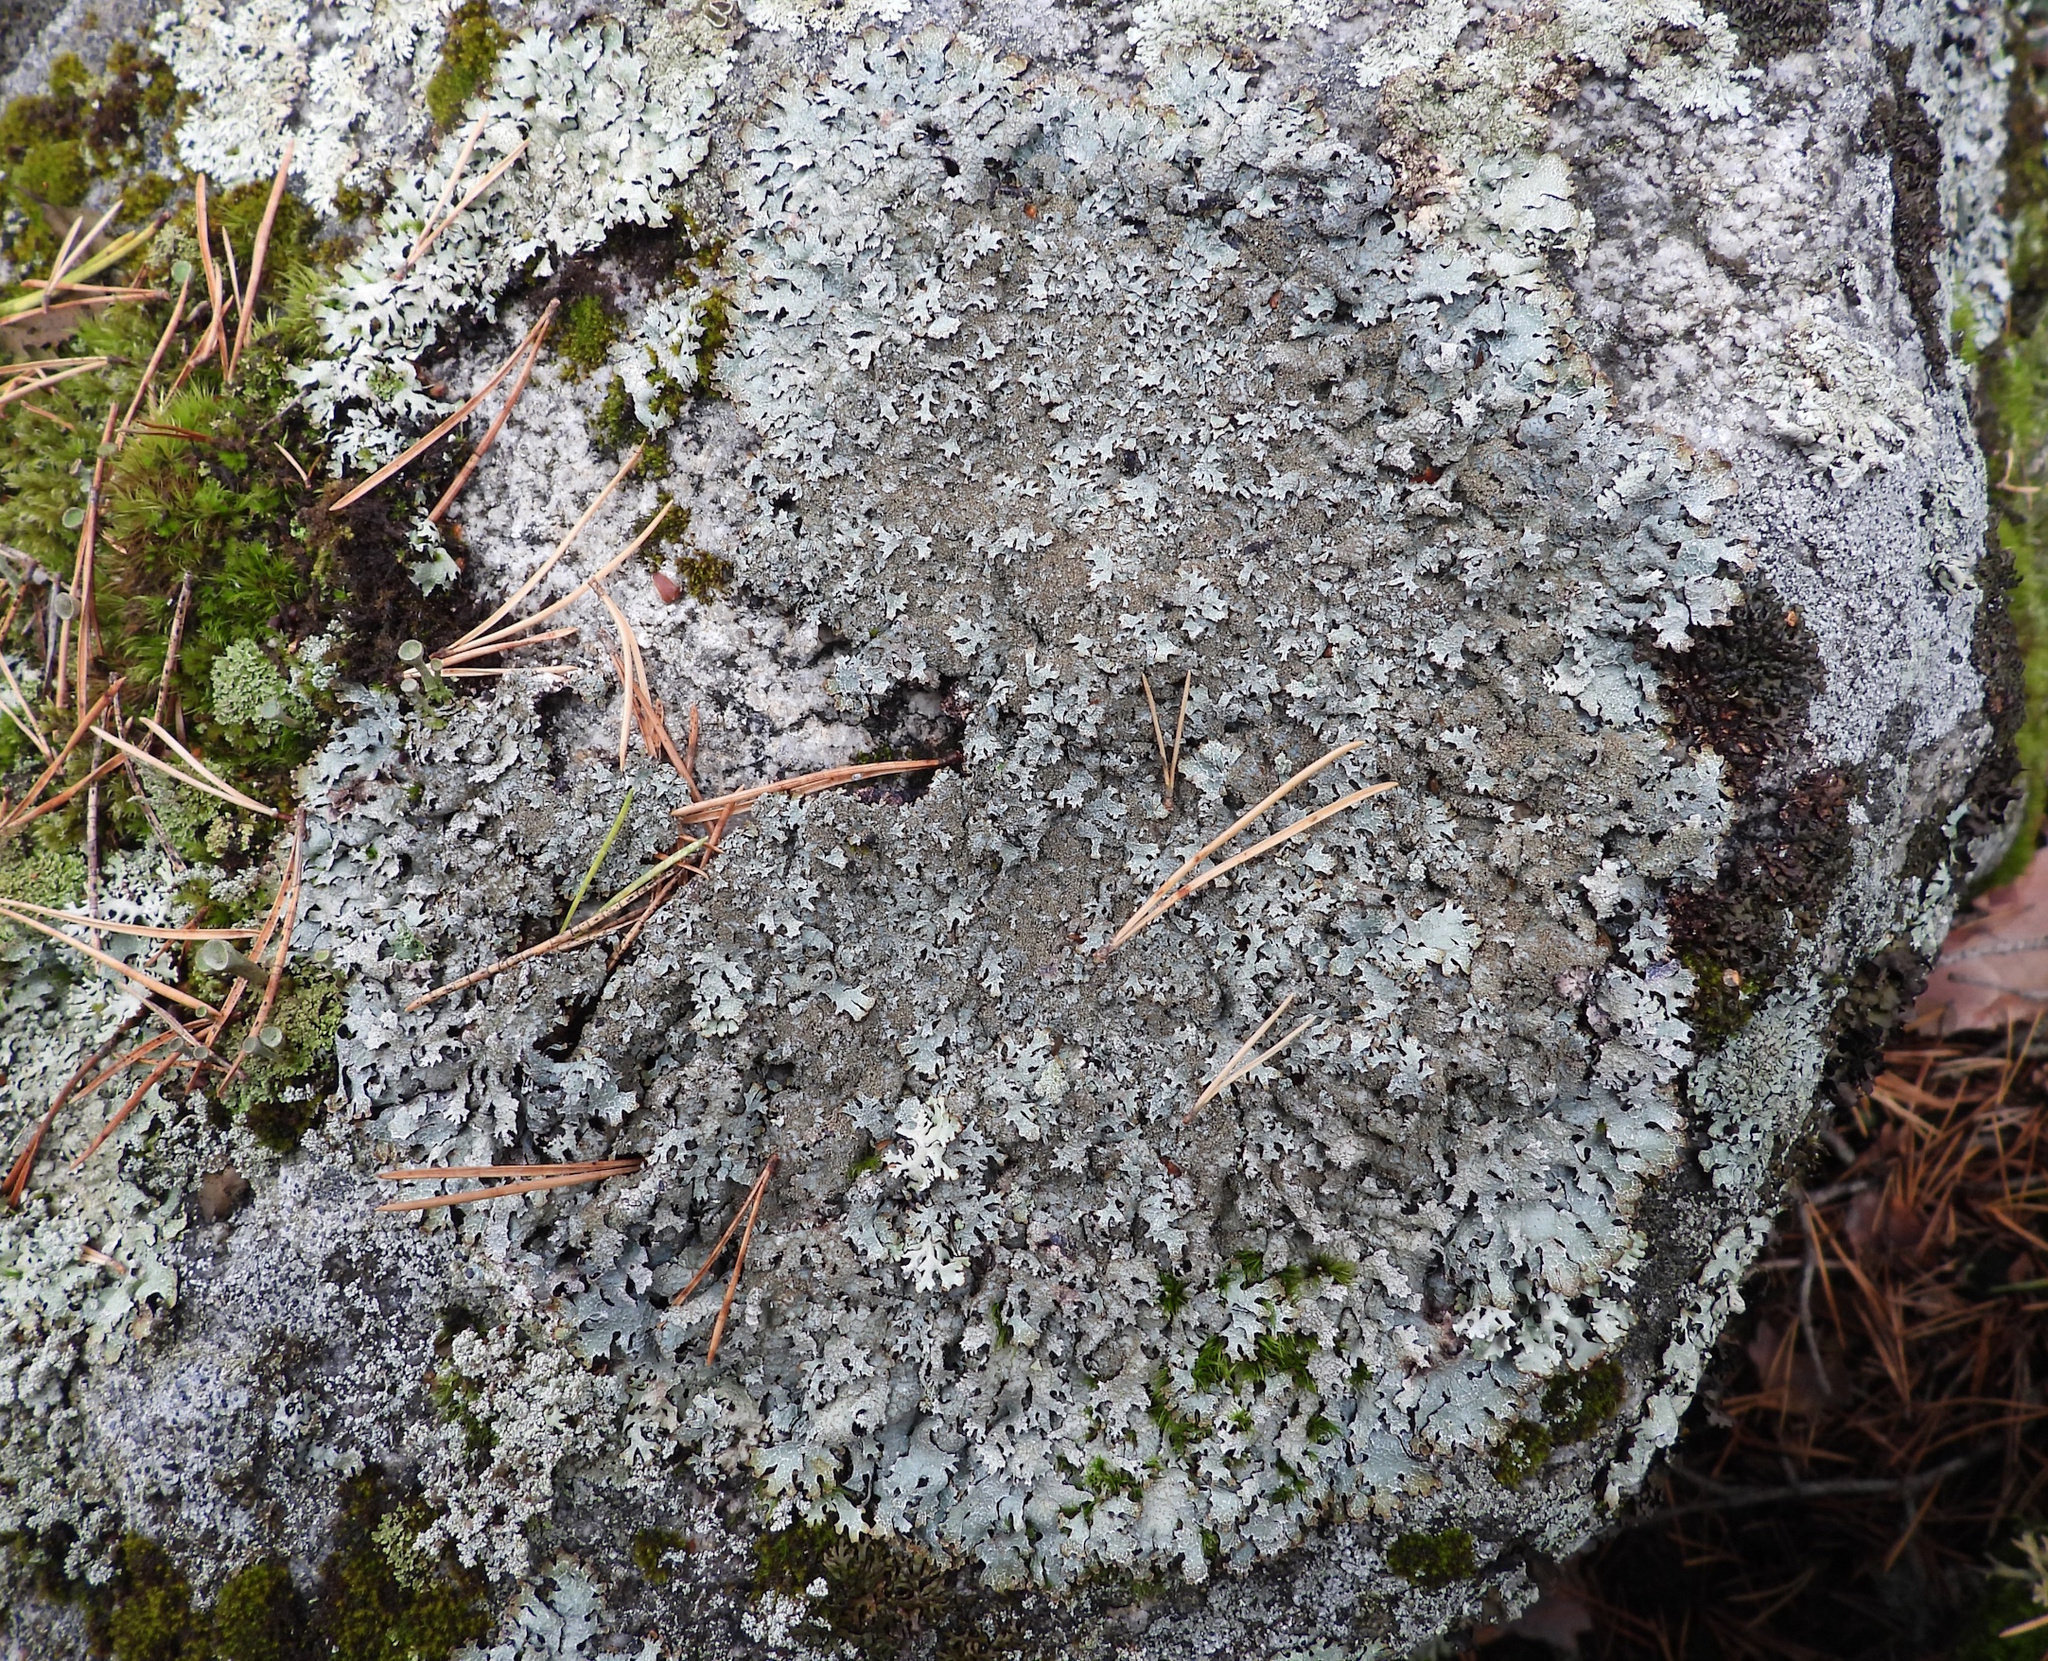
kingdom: Fungi
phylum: Ascomycota
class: Lecanoromycetes
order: Lecanorales
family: Parmeliaceae
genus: Parmelia
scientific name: Parmelia saxatilis
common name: Salted shield lichen
